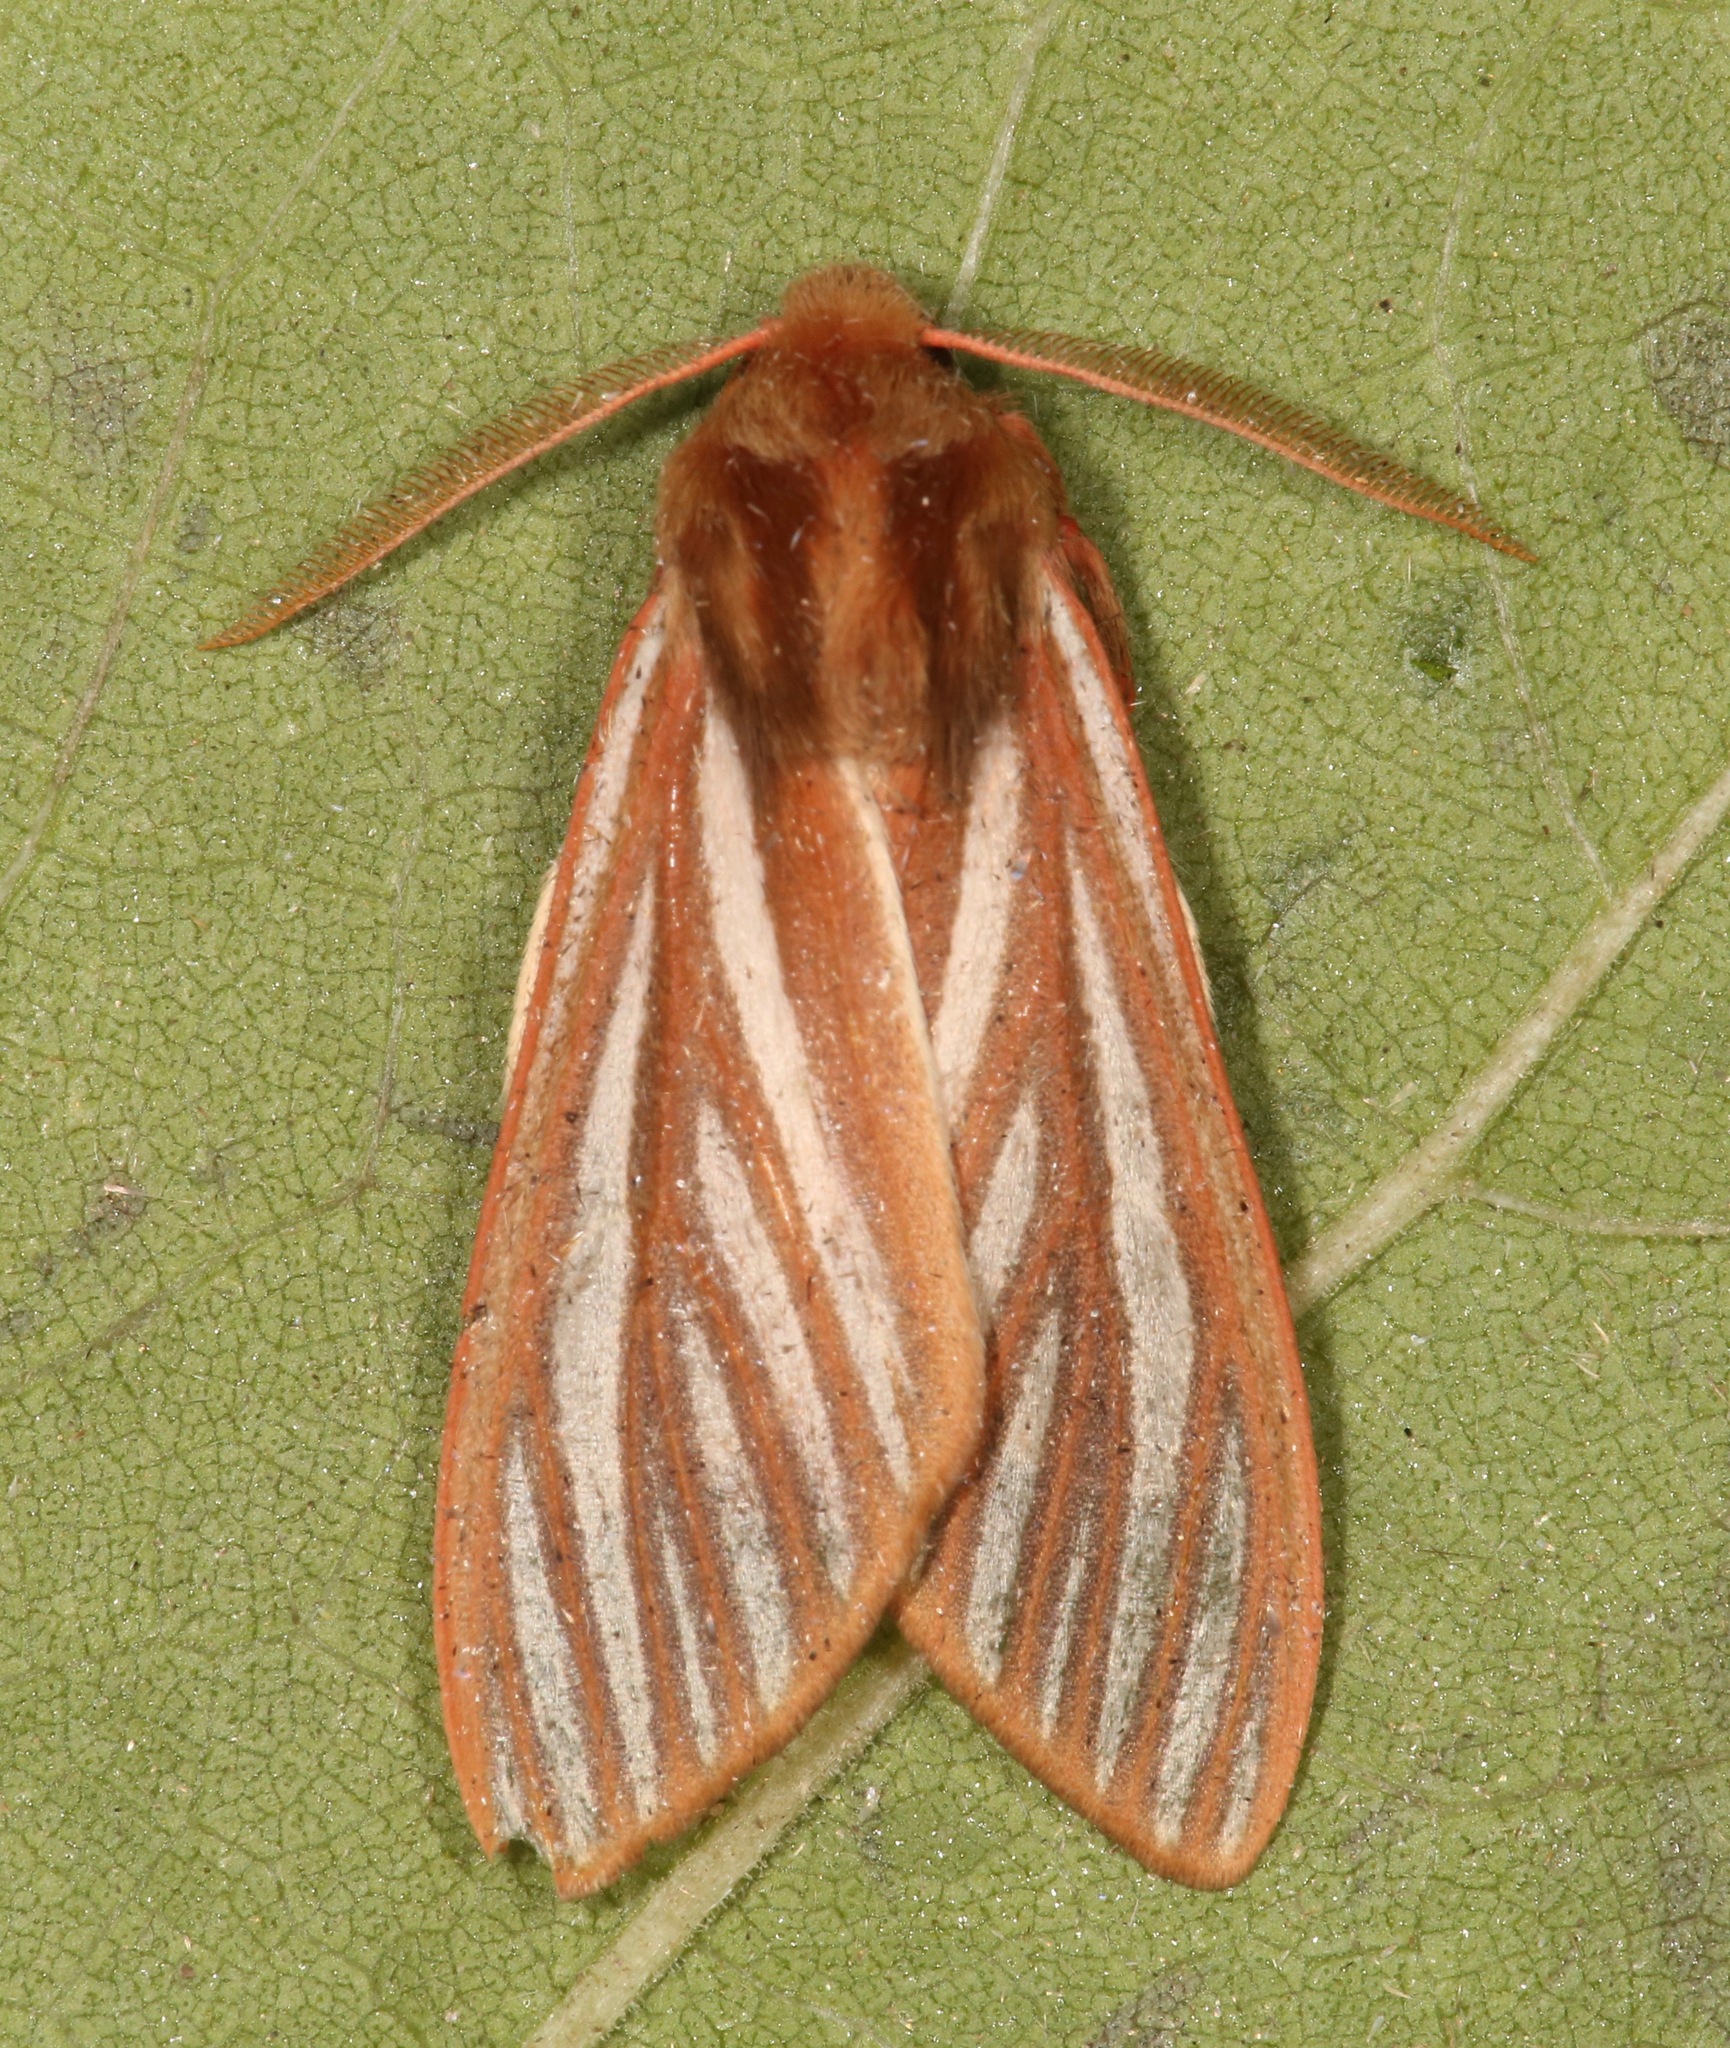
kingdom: Animalia
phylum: Arthropoda
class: Insecta
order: Lepidoptera
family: Erebidae
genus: Hemihyalea
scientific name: Hemihyalea ambigua
